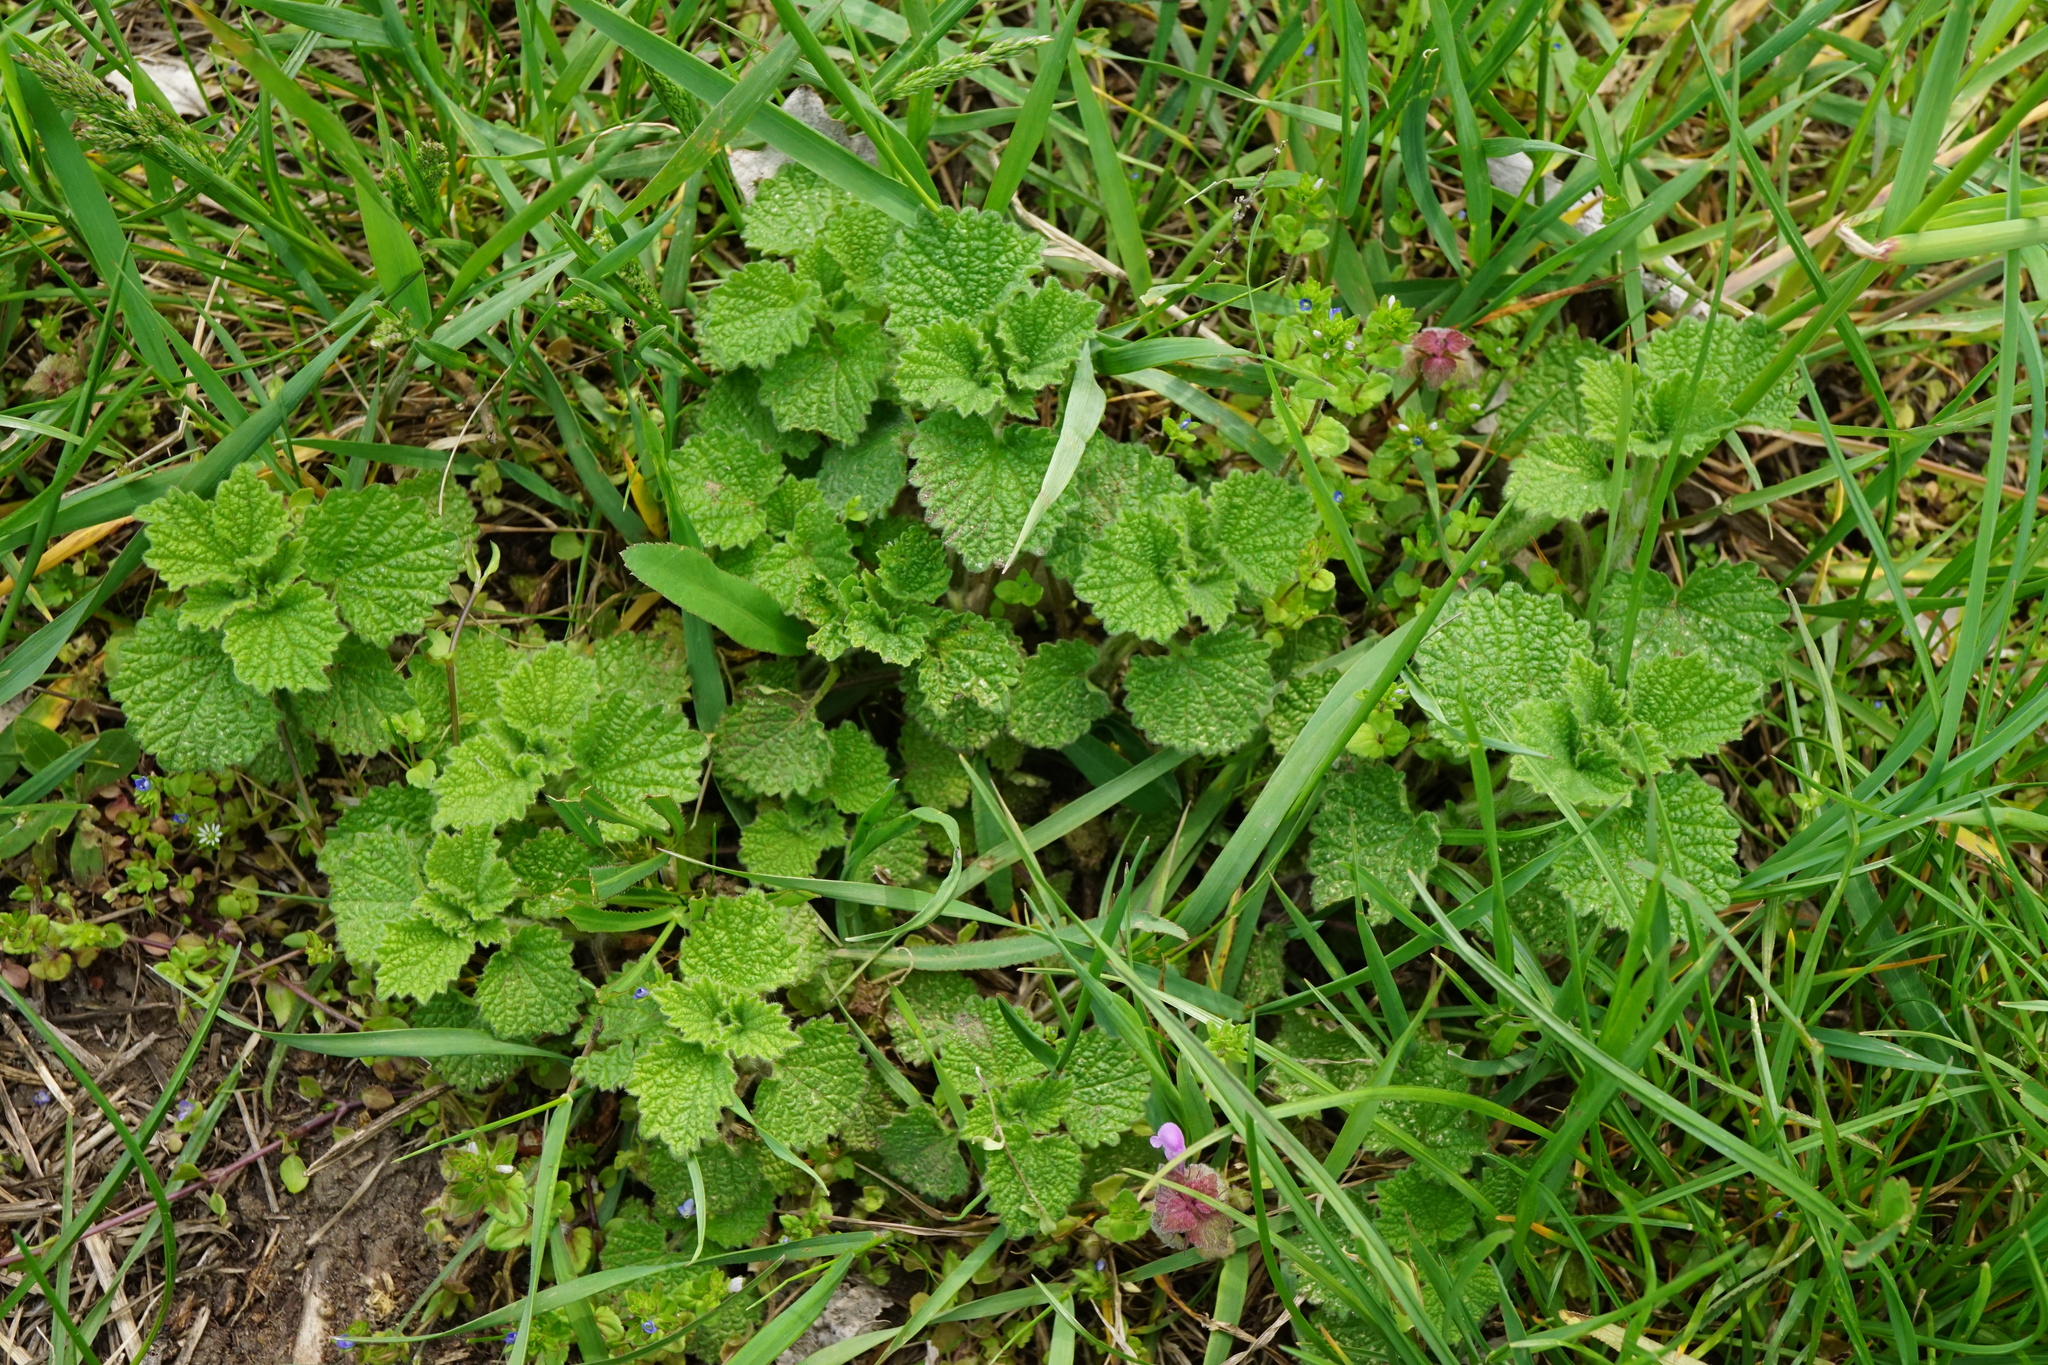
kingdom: Plantae
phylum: Tracheophyta
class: Magnoliopsida
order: Lamiales
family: Lamiaceae
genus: Ballota
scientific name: Ballota nigra
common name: Black horehound
